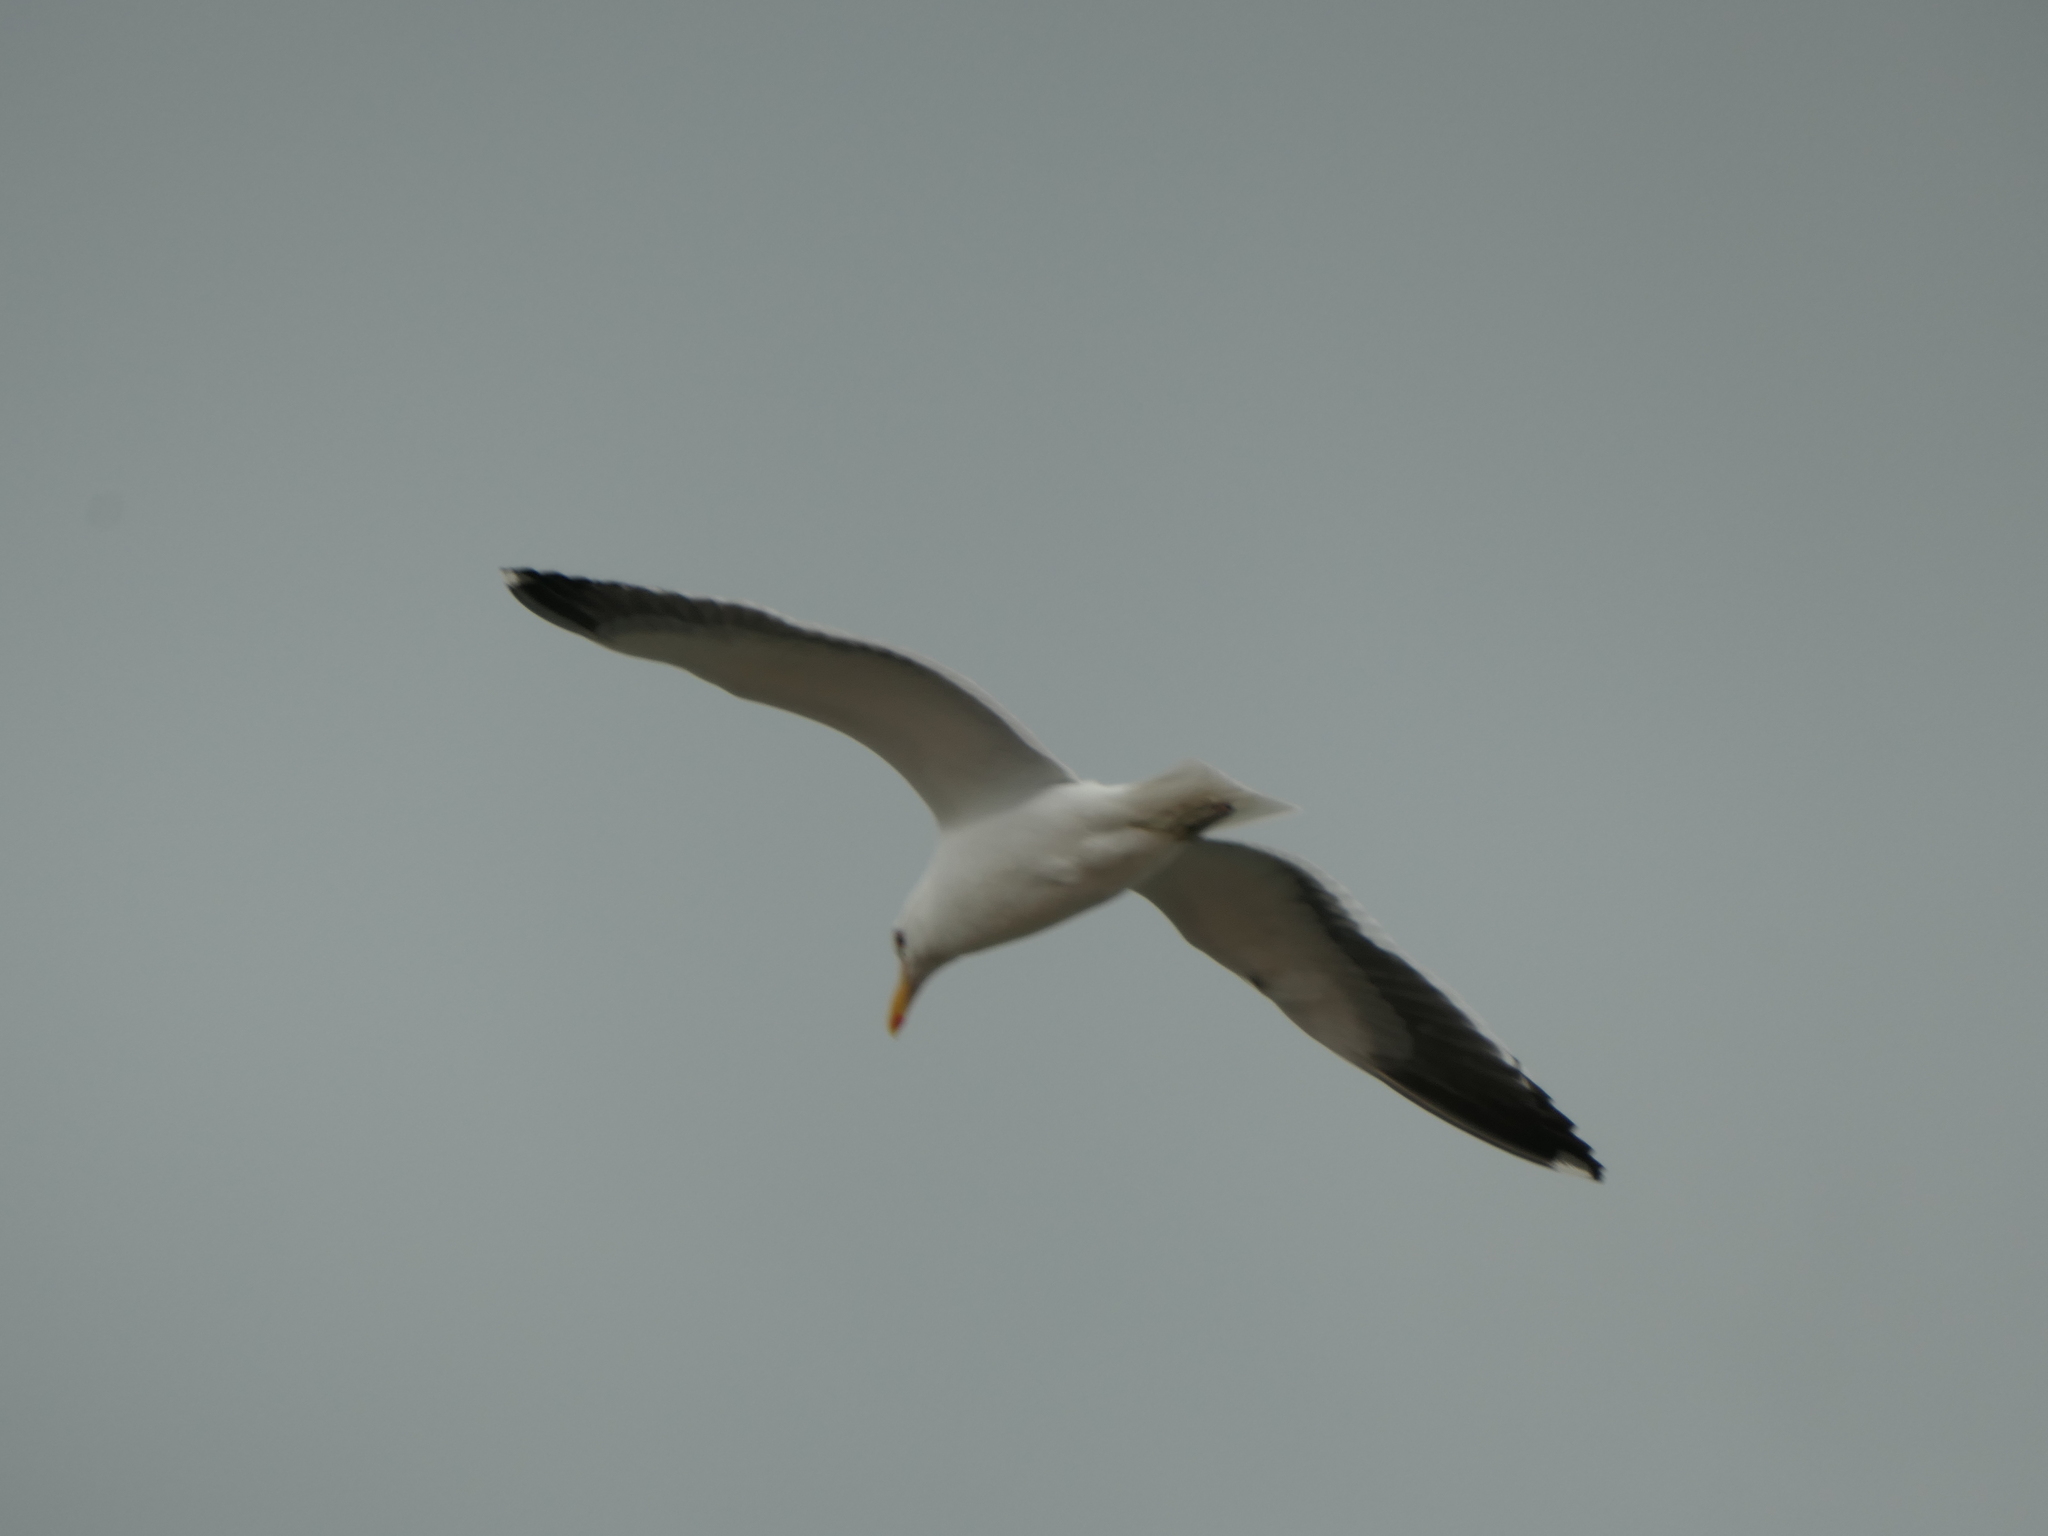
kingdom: Animalia
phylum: Chordata
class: Aves
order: Charadriiformes
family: Laridae
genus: Larus
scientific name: Larus dominicanus
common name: Kelp gull
